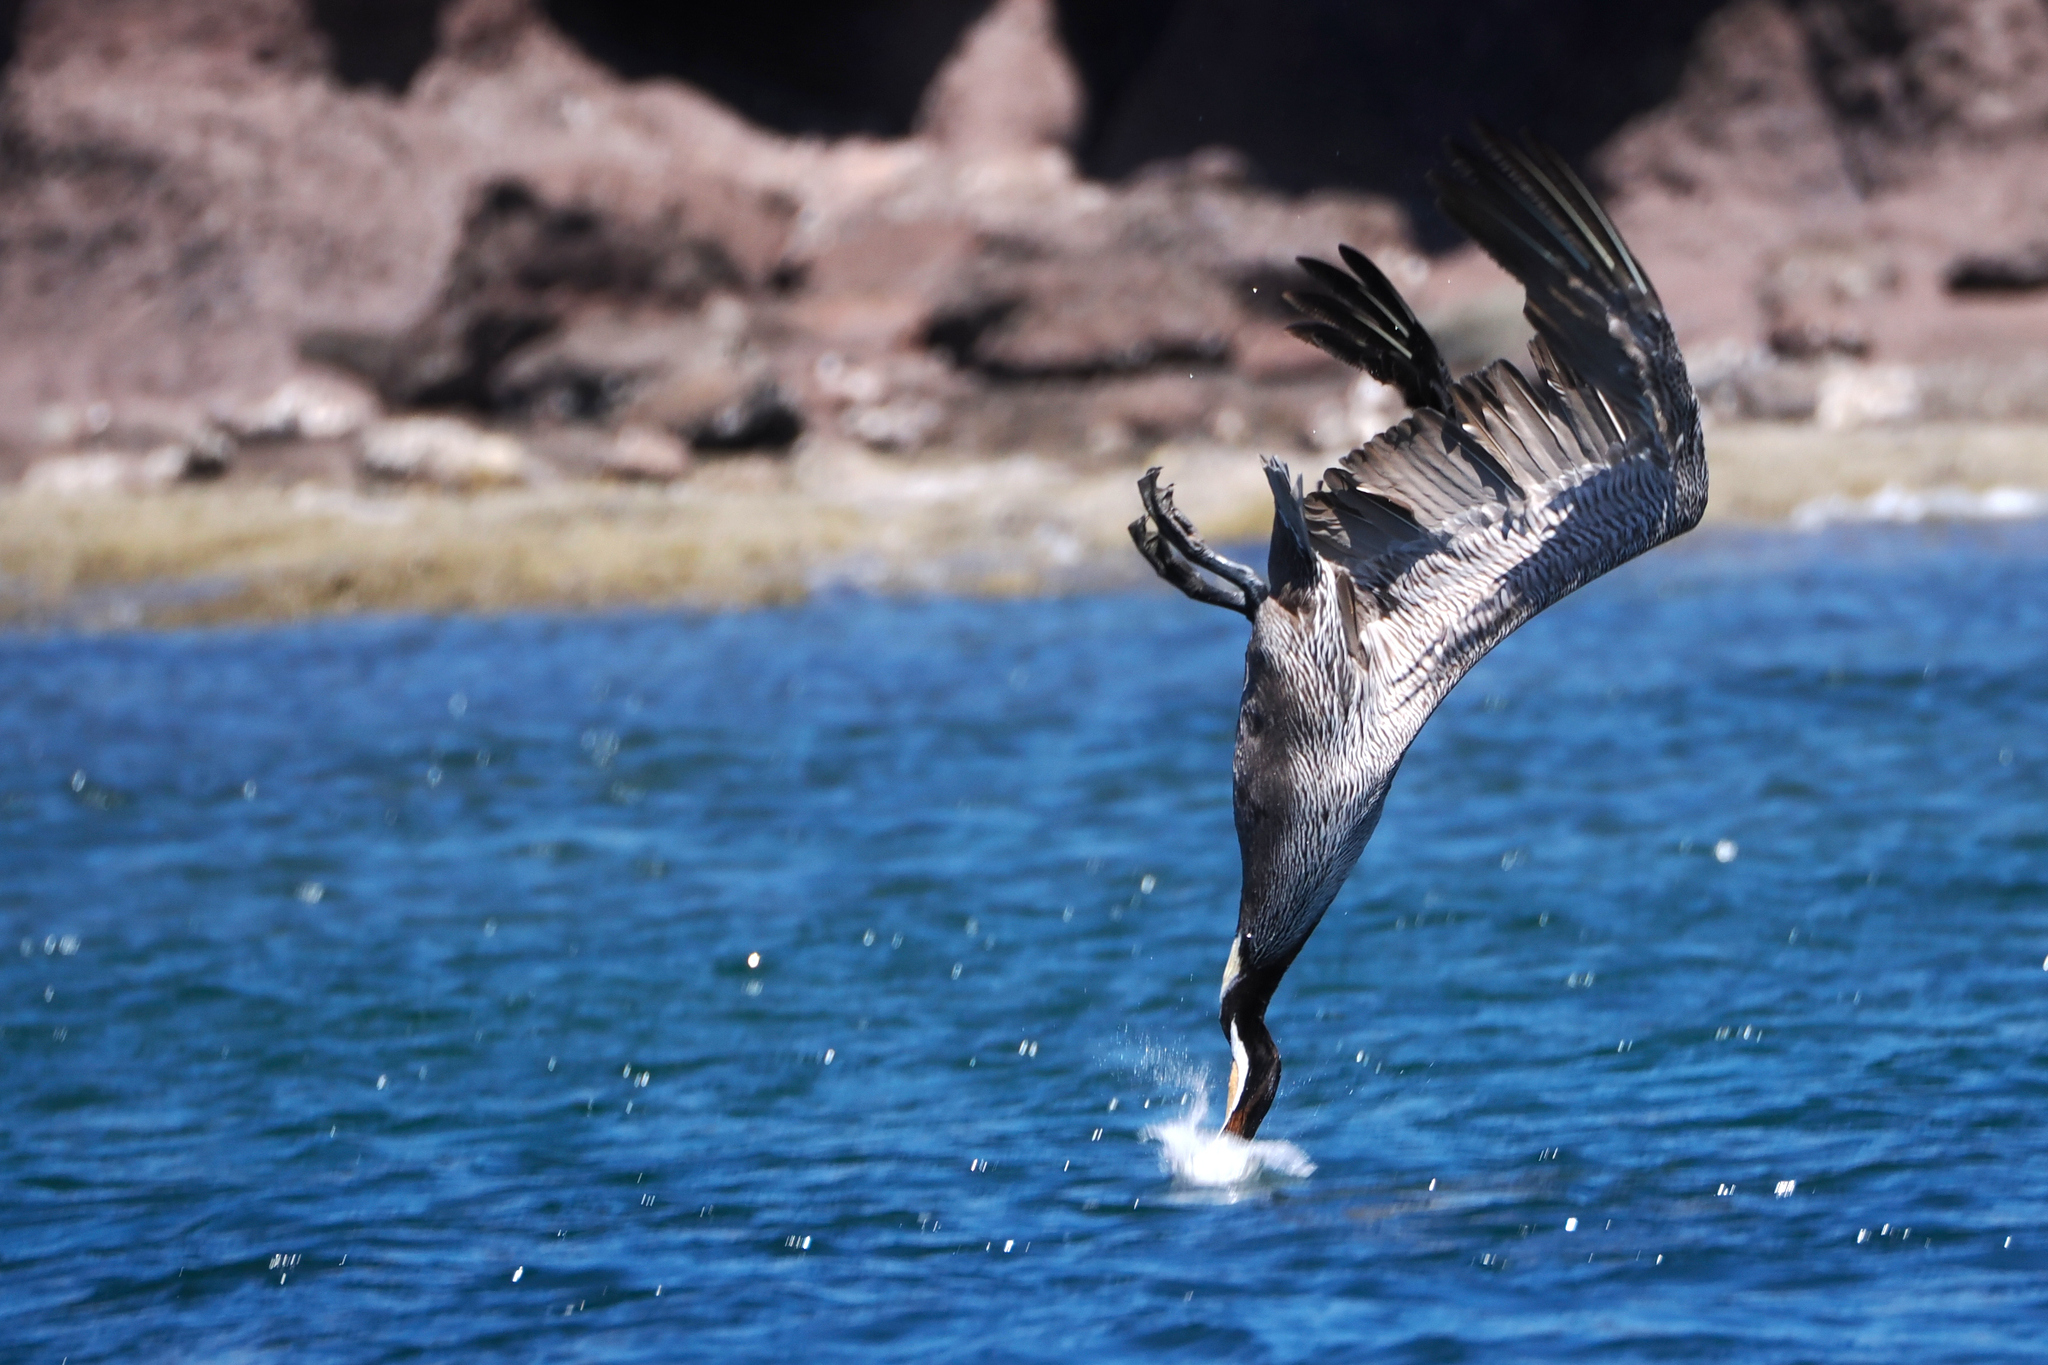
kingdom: Animalia
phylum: Chordata
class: Aves
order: Pelecaniformes
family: Pelecanidae
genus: Pelecanus
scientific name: Pelecanus occidentalis
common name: Brown pelican
